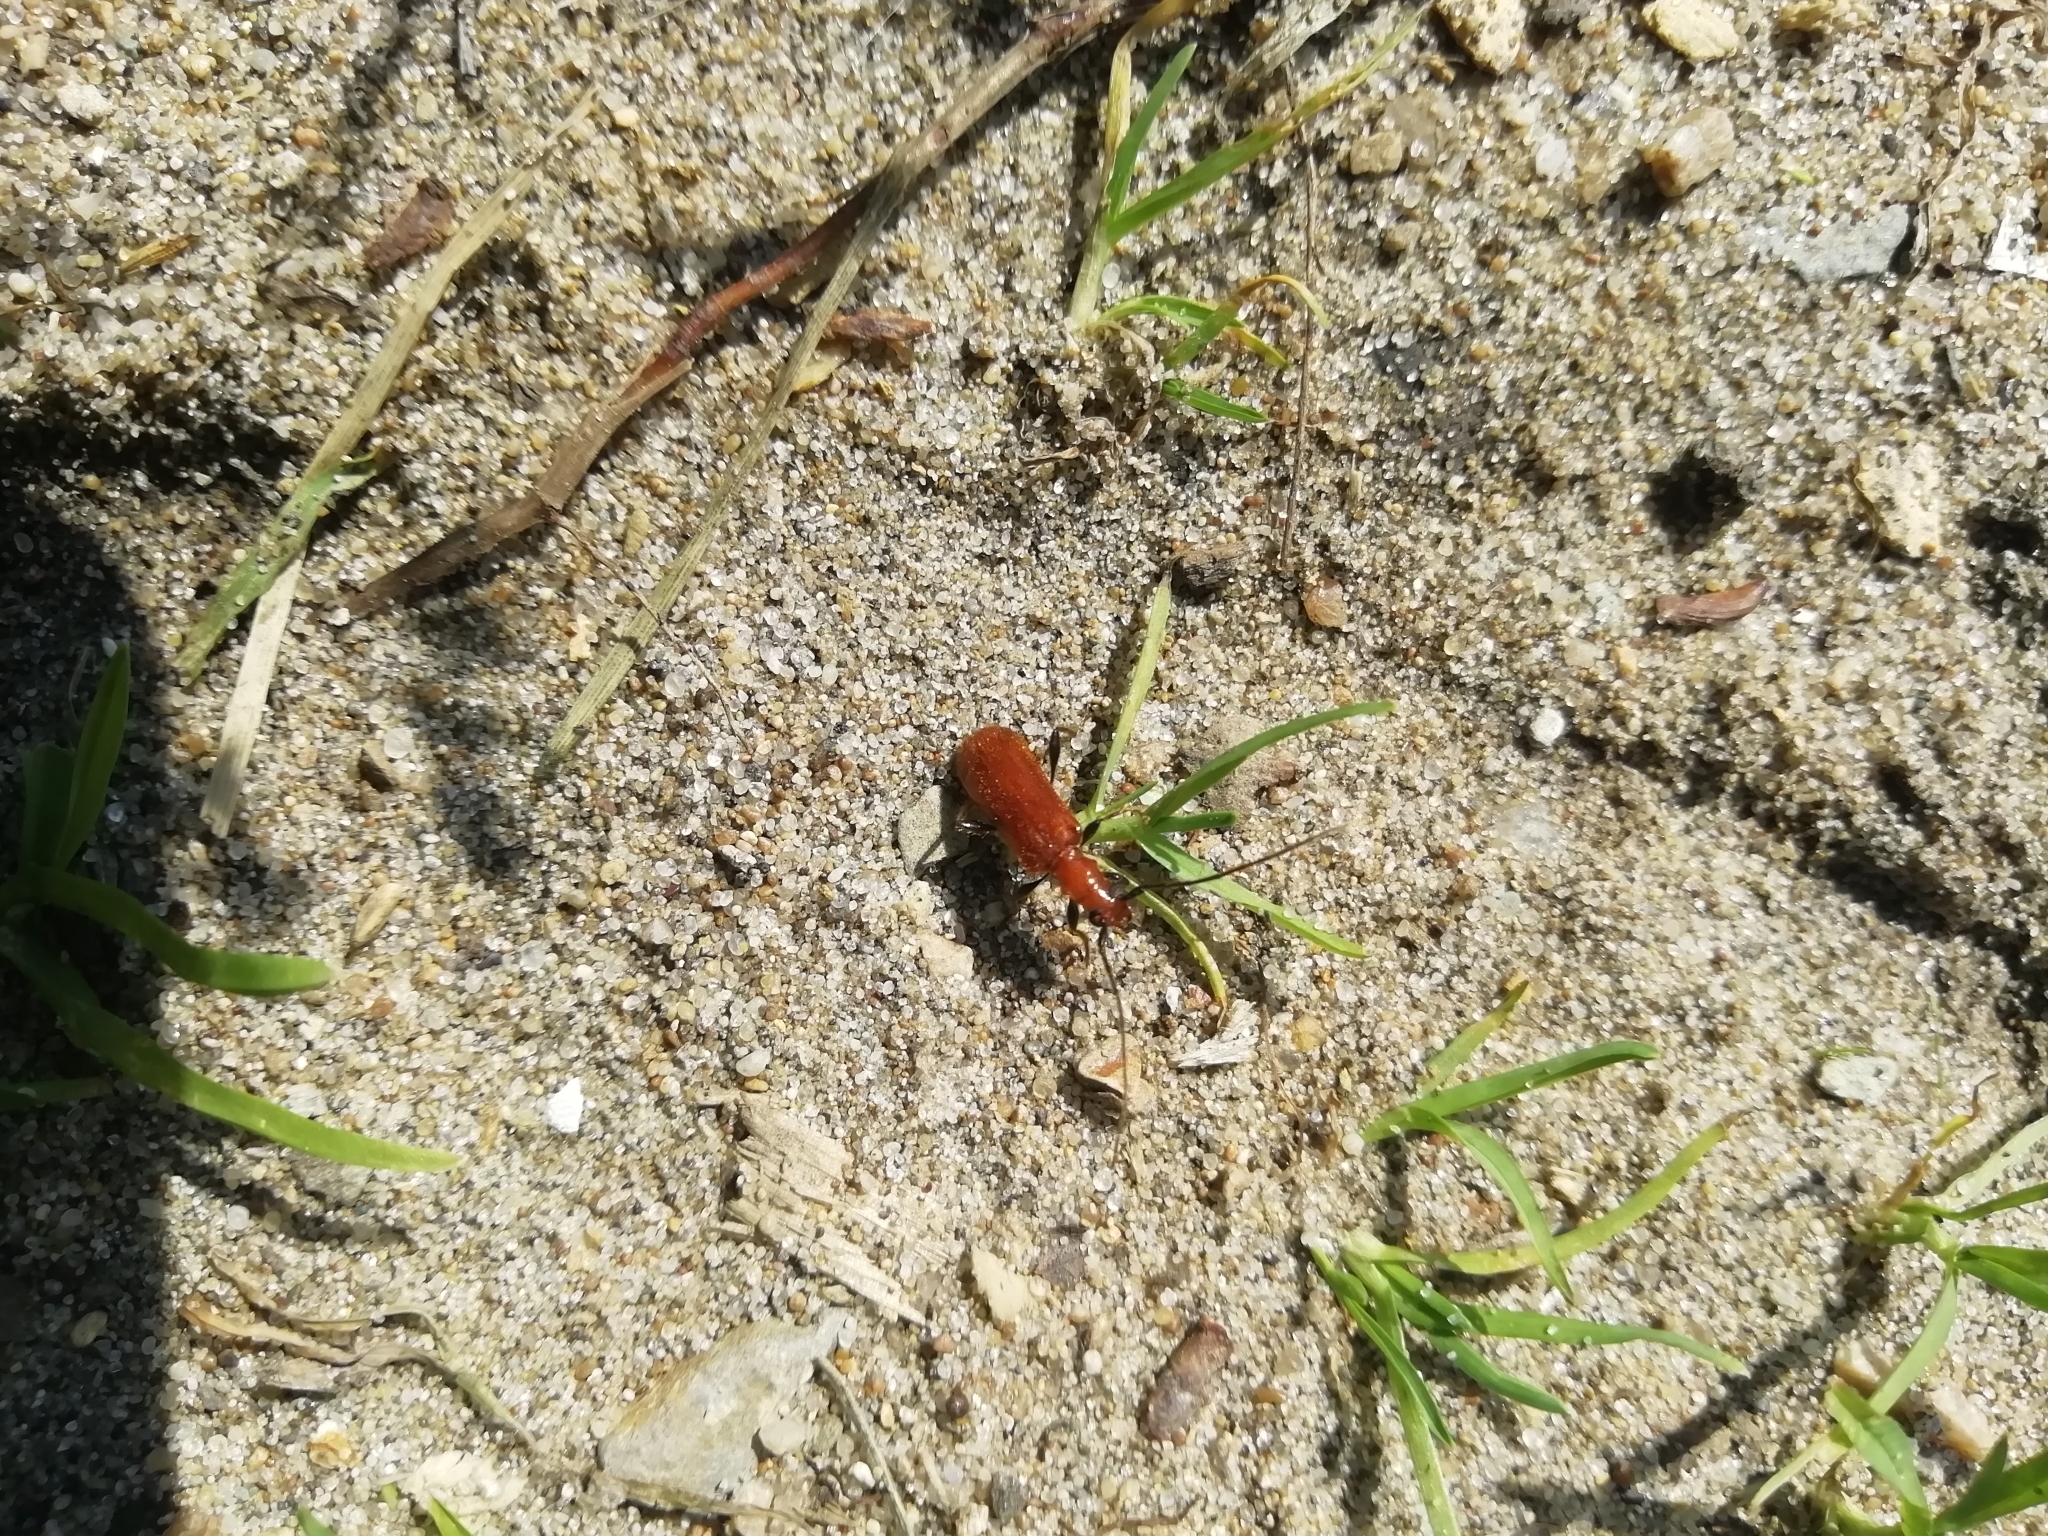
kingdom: Animalia
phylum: Arthropoda
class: Insecta
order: Coleoptera
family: Cerambycidae
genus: Obrium
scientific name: Obrium cantharinum
